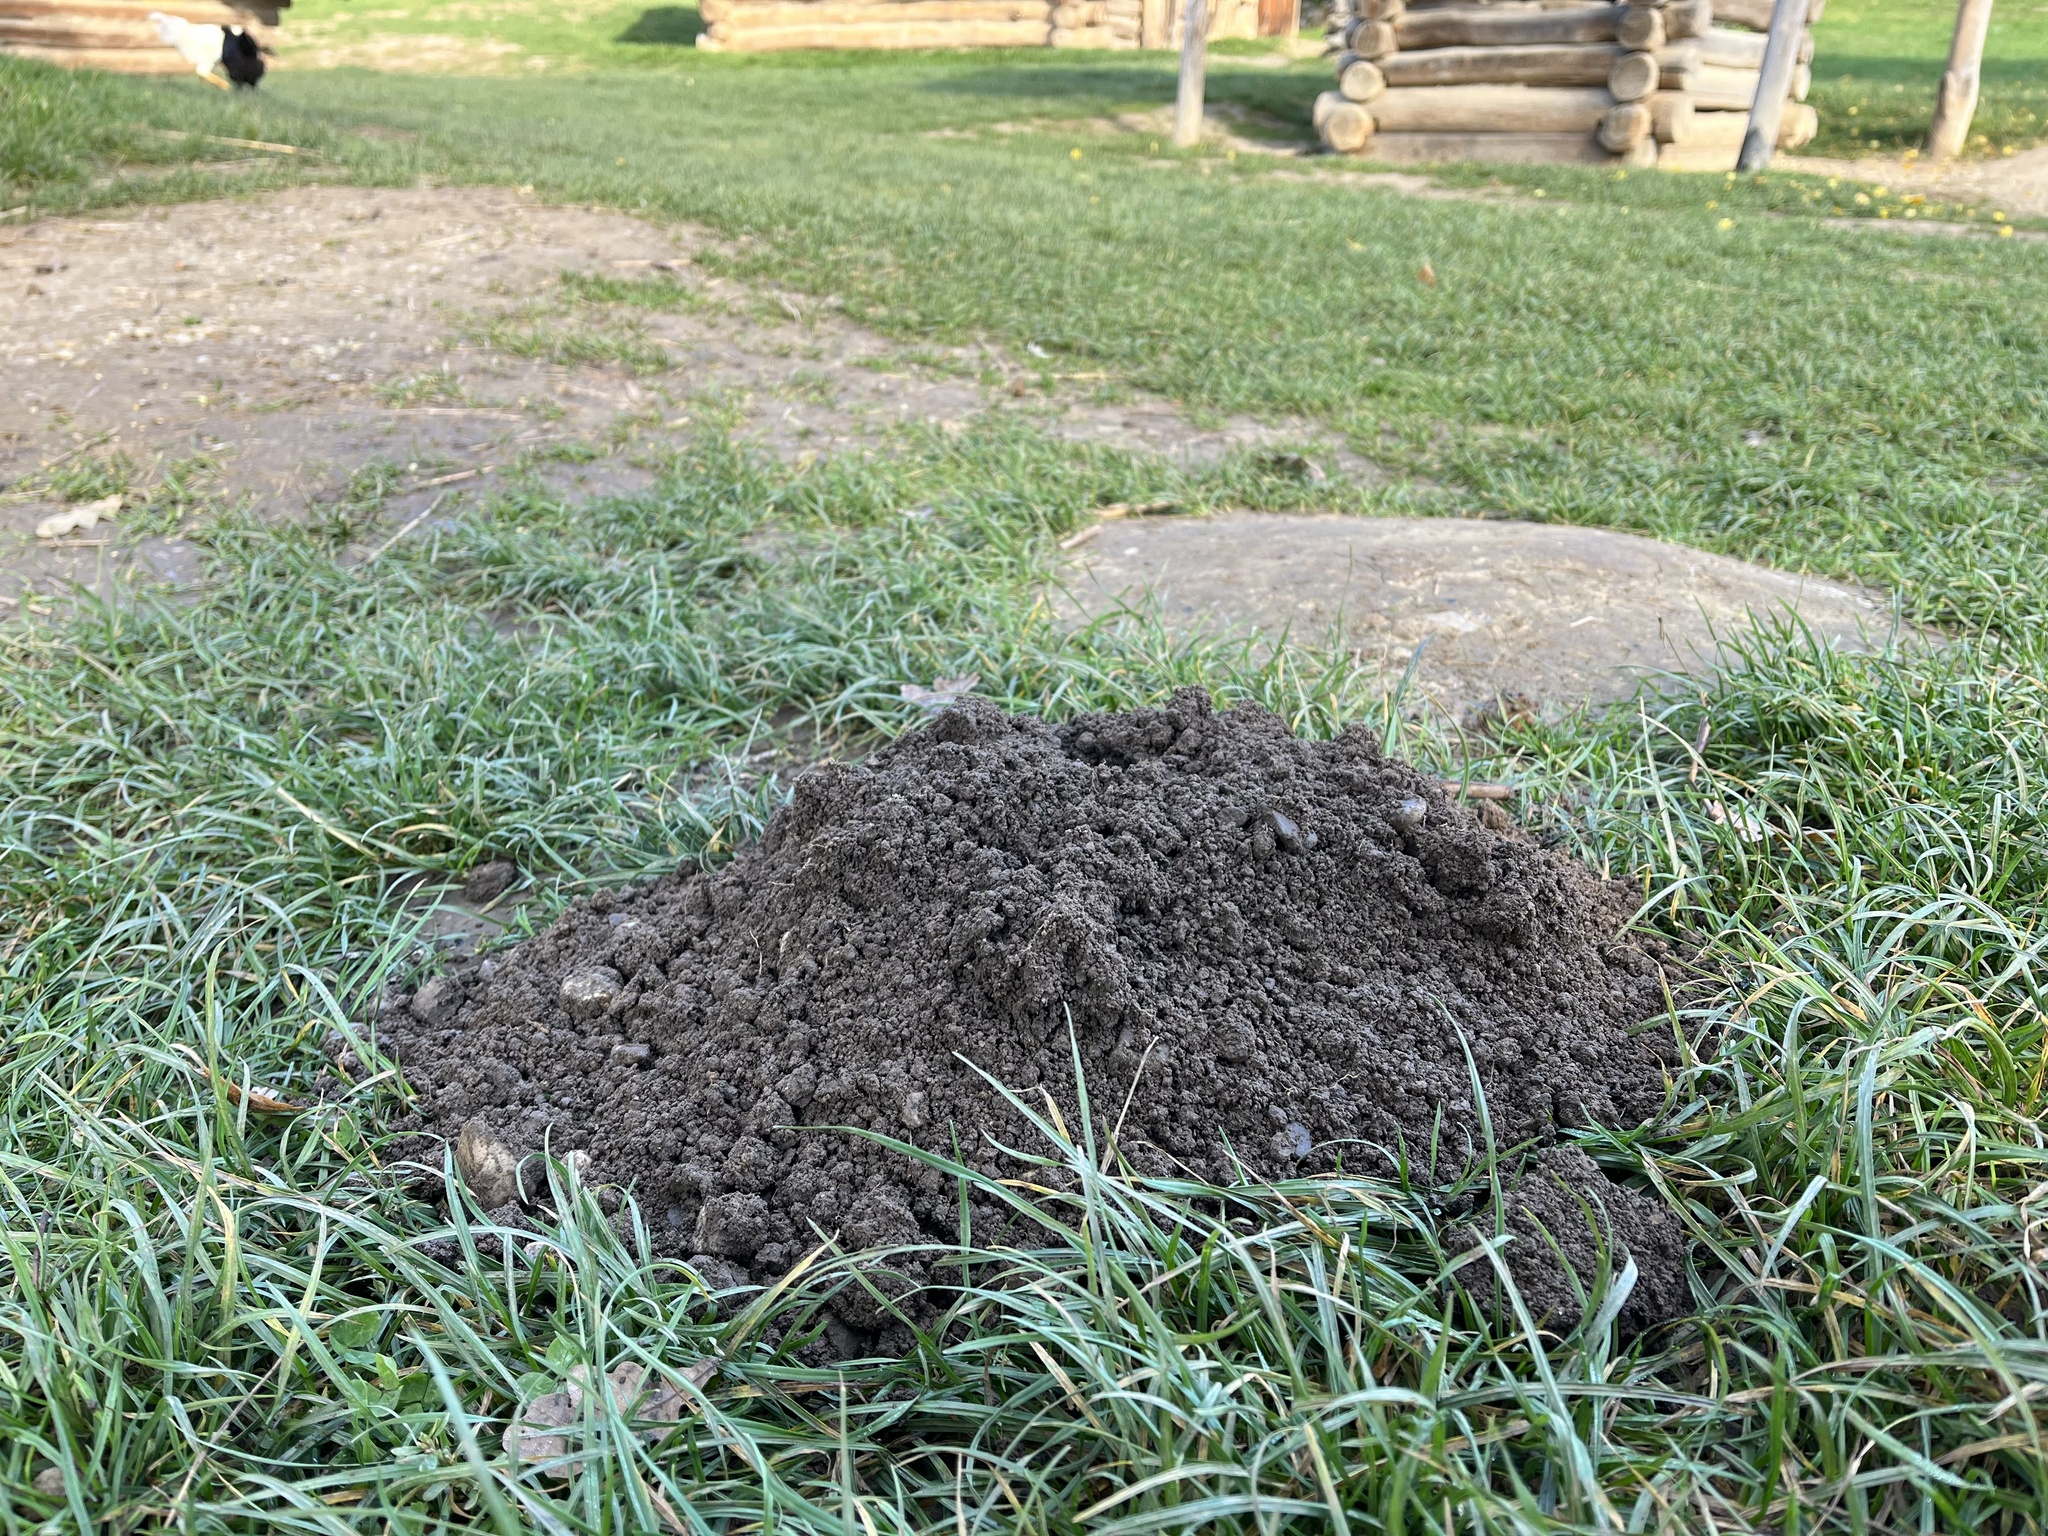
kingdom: Animalia
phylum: Chordata
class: Mammalia
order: Soricomorpha
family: Talpidae
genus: Talpa
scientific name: Talpa europaea
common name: European mole
